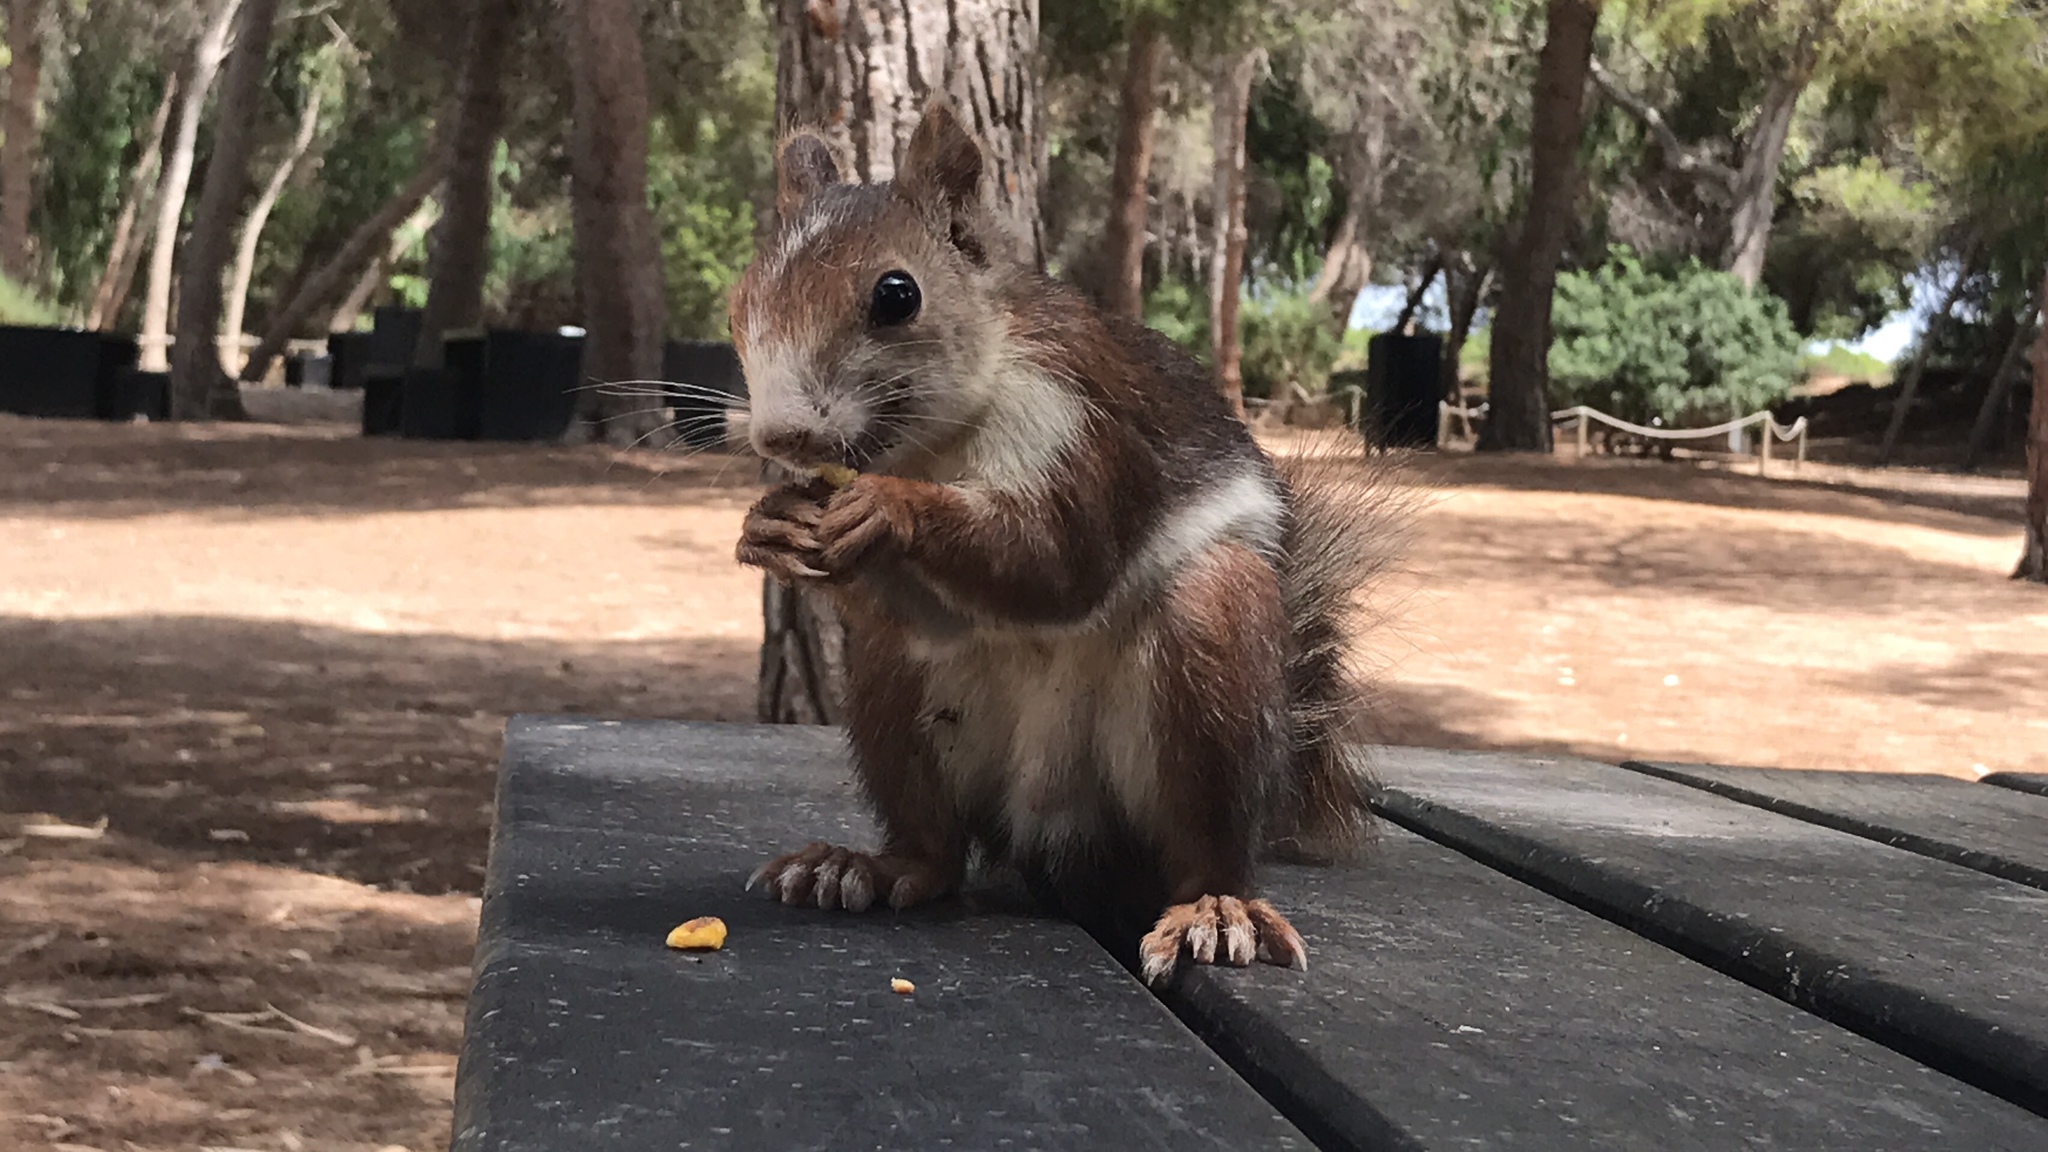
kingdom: Animalia
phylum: Chordata
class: Mammalia
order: Rodentia
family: Sciuridae
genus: Sciurus
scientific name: Sciurus vulgaris
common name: Eurasian red squirrel
